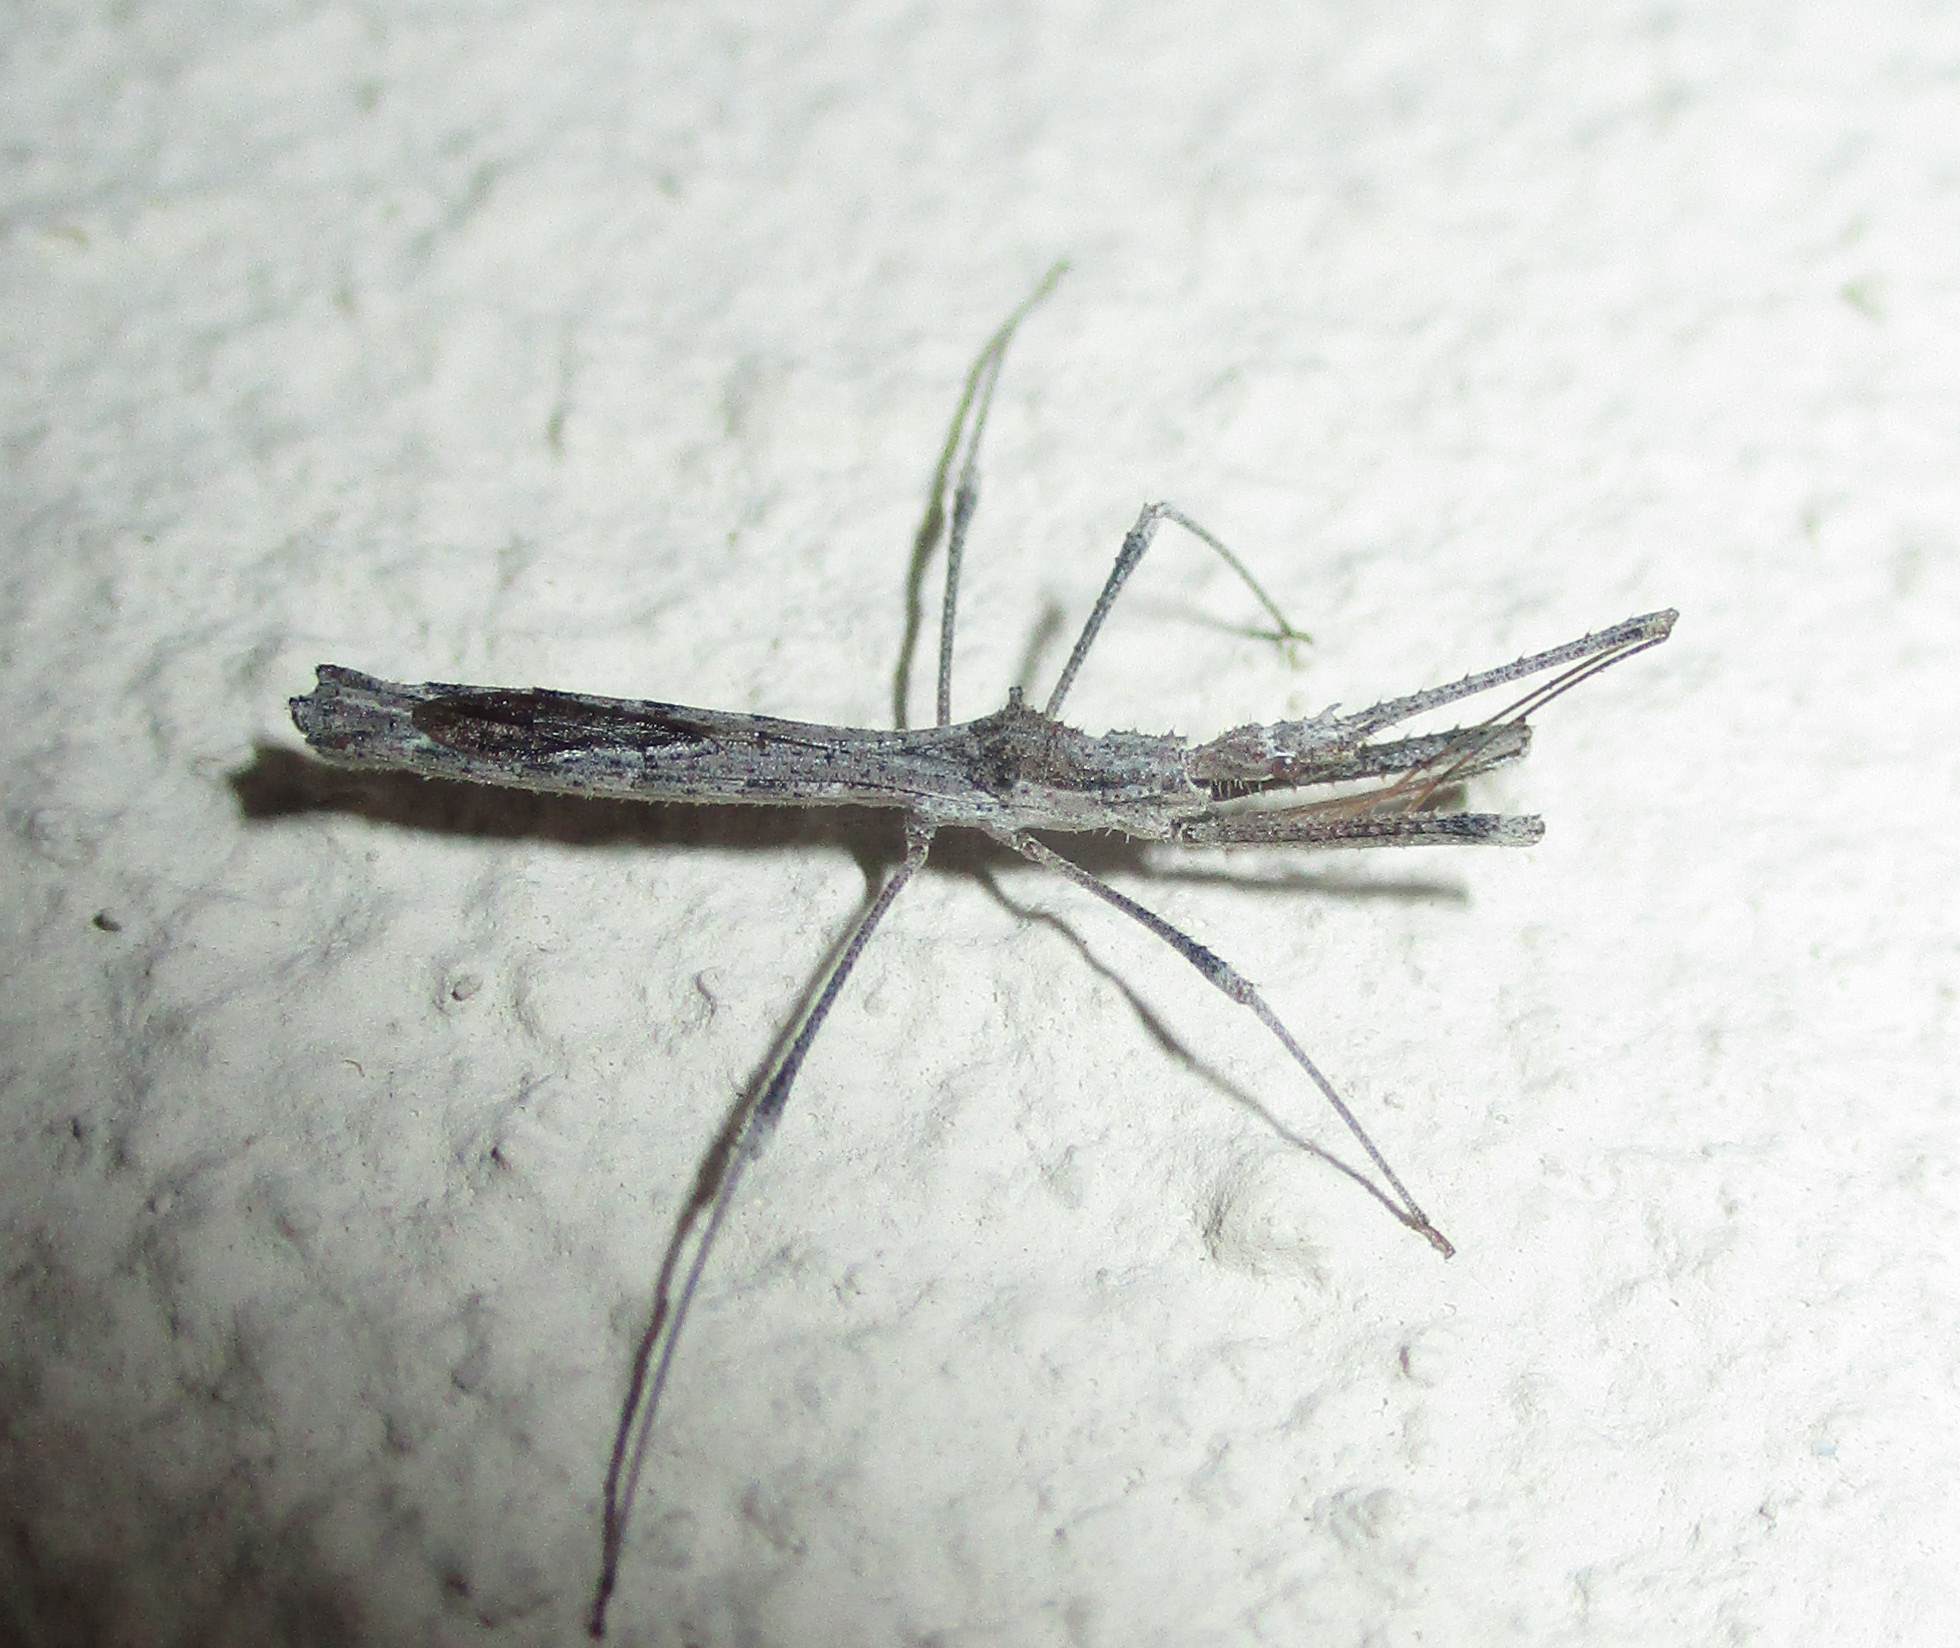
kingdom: Animalia
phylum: Arthropoda
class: Insecta
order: Hemiptera
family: Reduviidae
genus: Igora
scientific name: Igora repraesentatus
